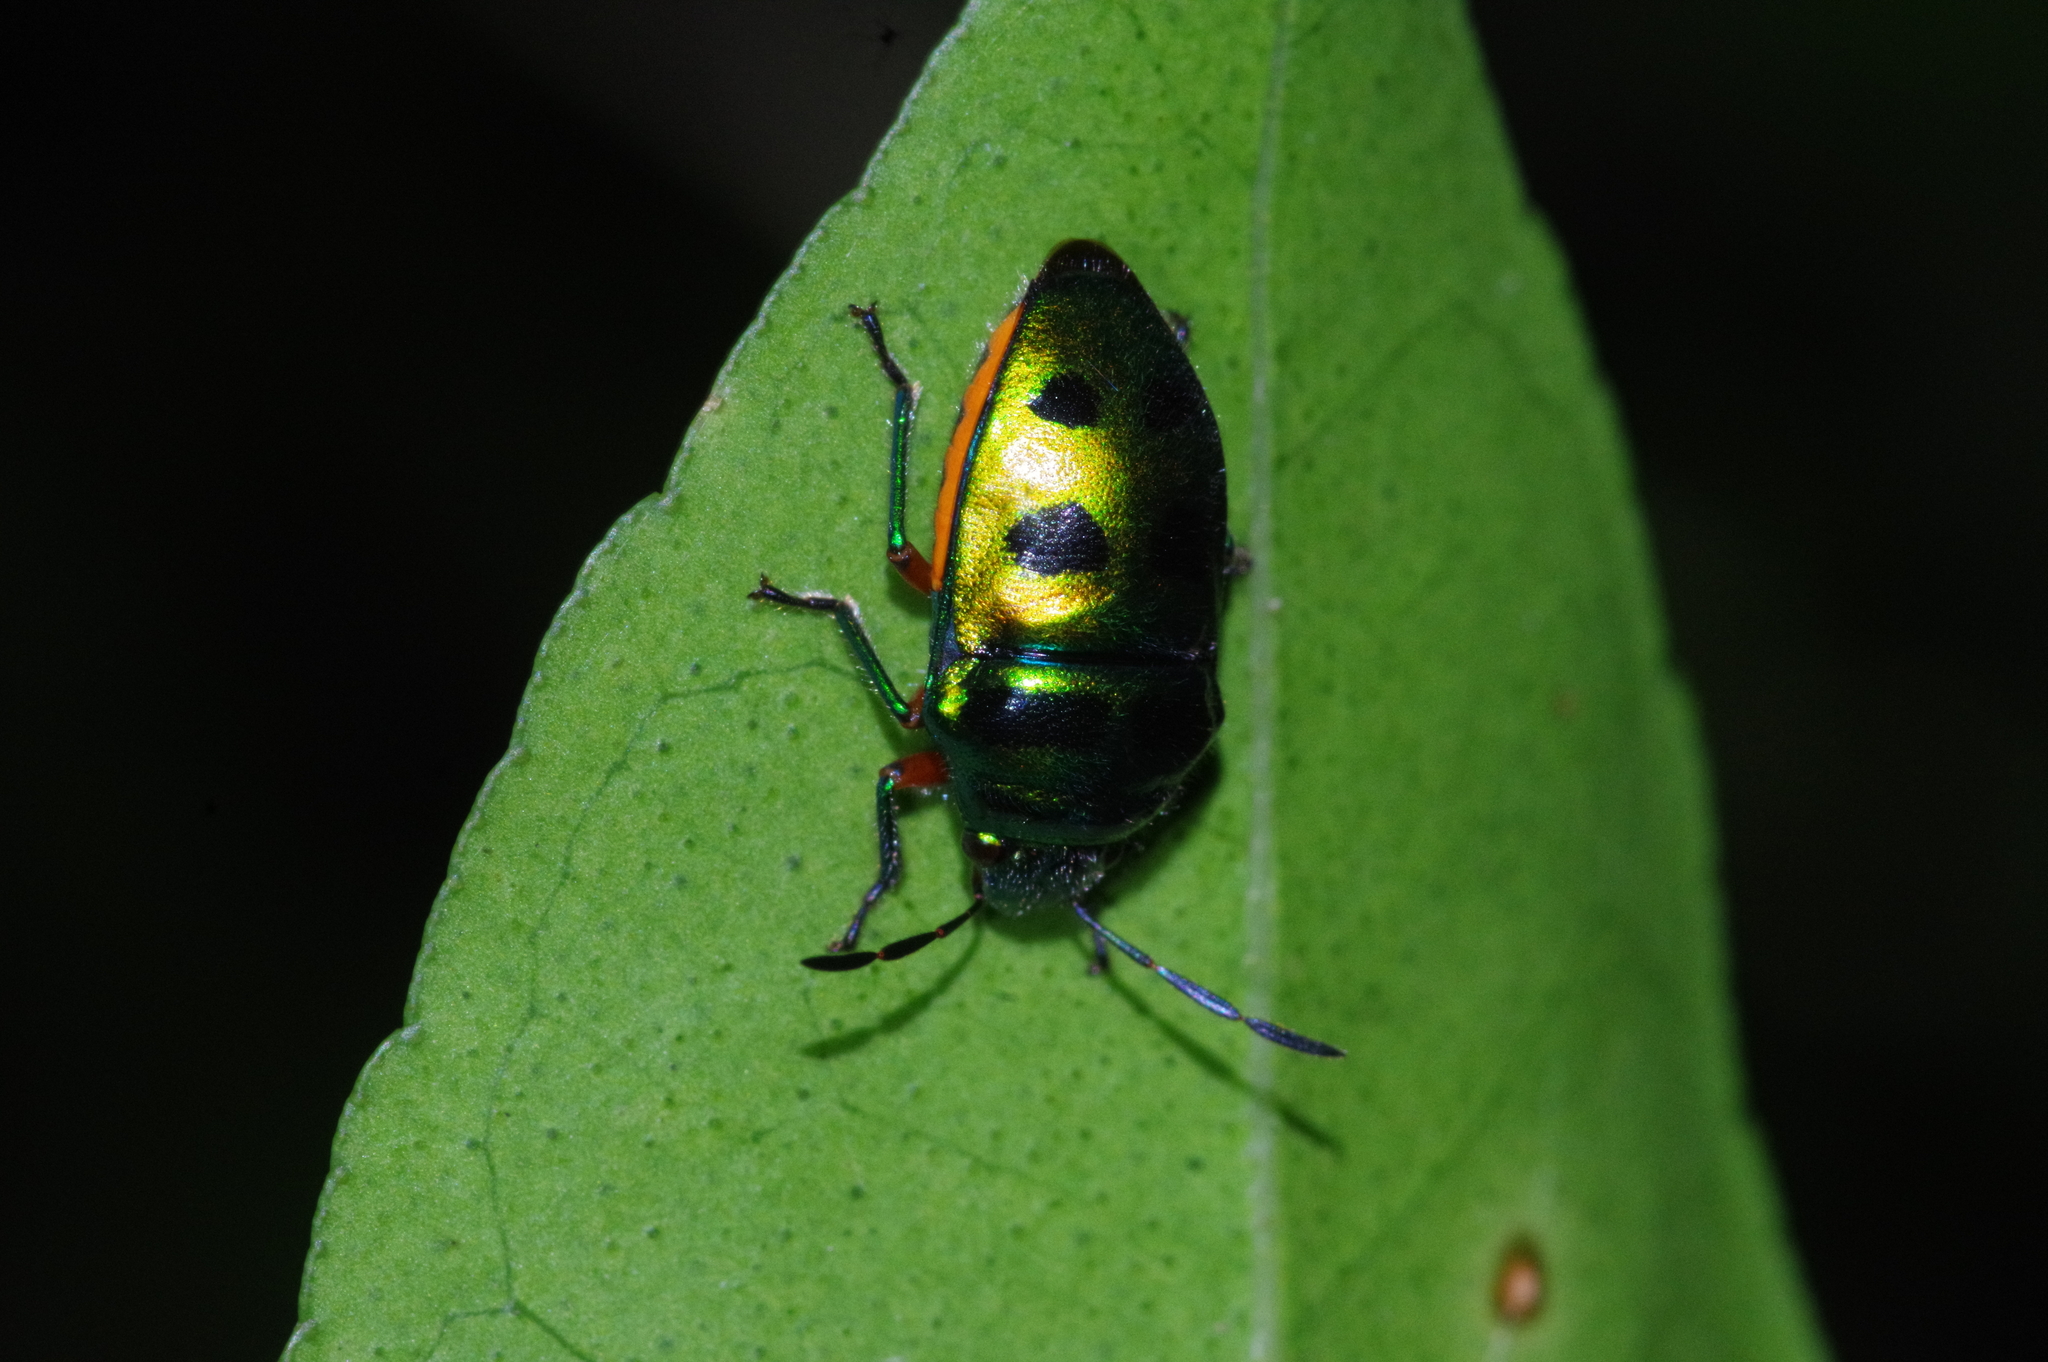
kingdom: Animalia
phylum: Arthropoda
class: Insecta
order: Hemiptera
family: Scutelleridae
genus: Lampromicra
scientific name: Lampromicra miyakona
